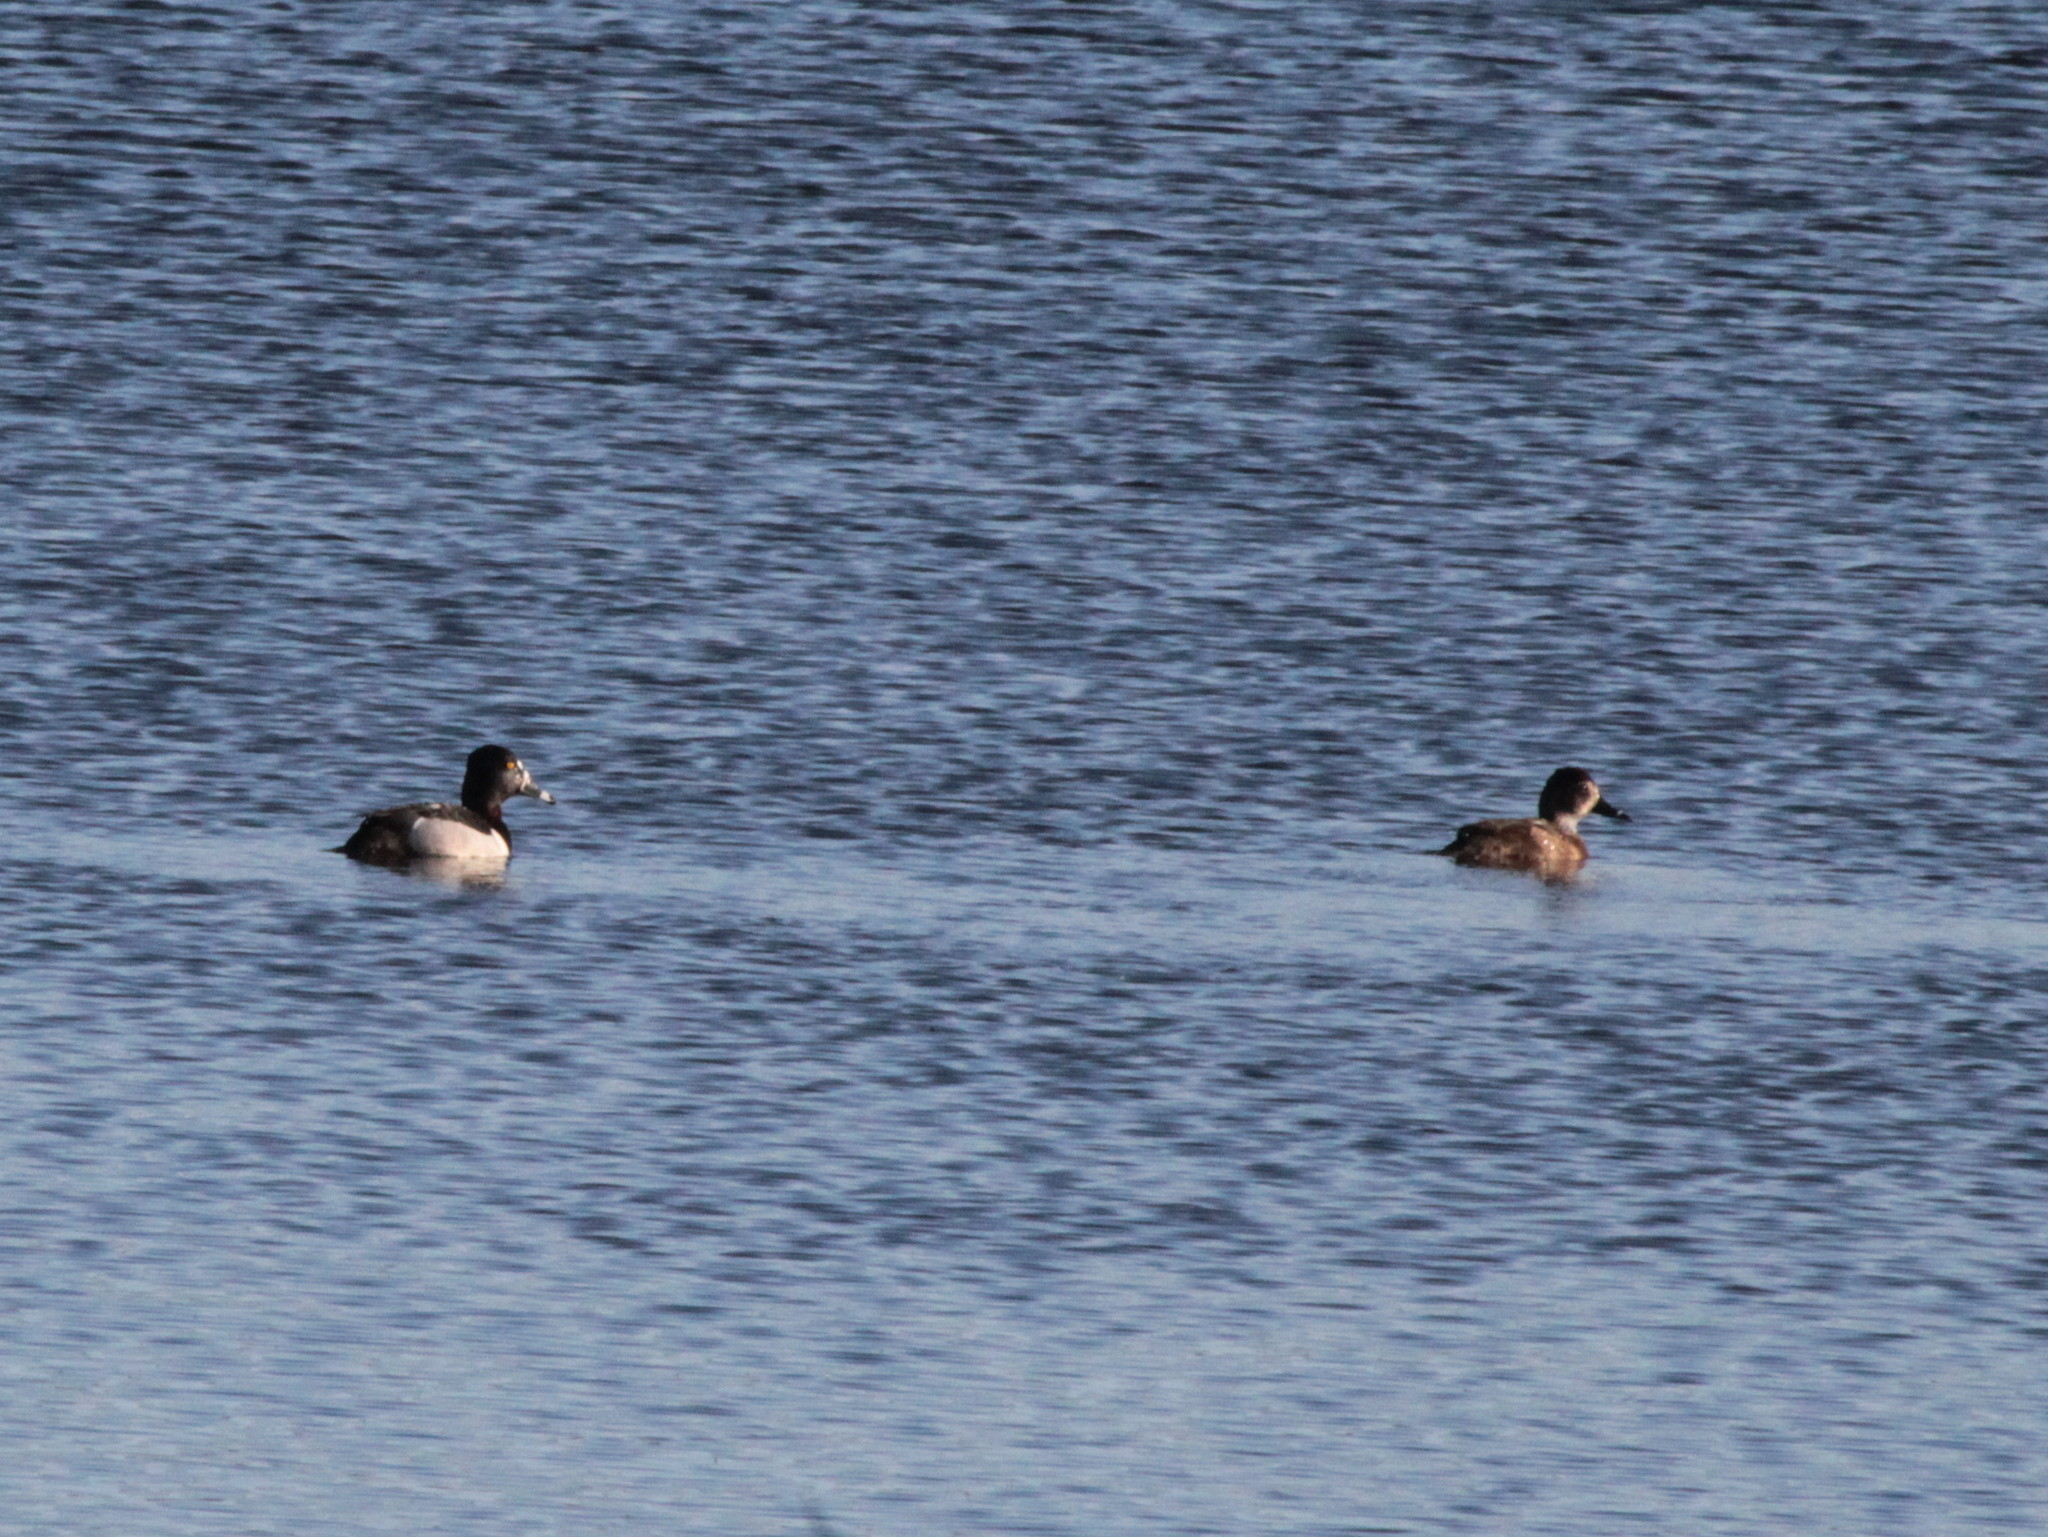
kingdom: Animalia
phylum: Chordata
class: Aves
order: Anseriformes
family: Anatidae
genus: Aythya
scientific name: Aythya collaris
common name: Ring-necked duck
